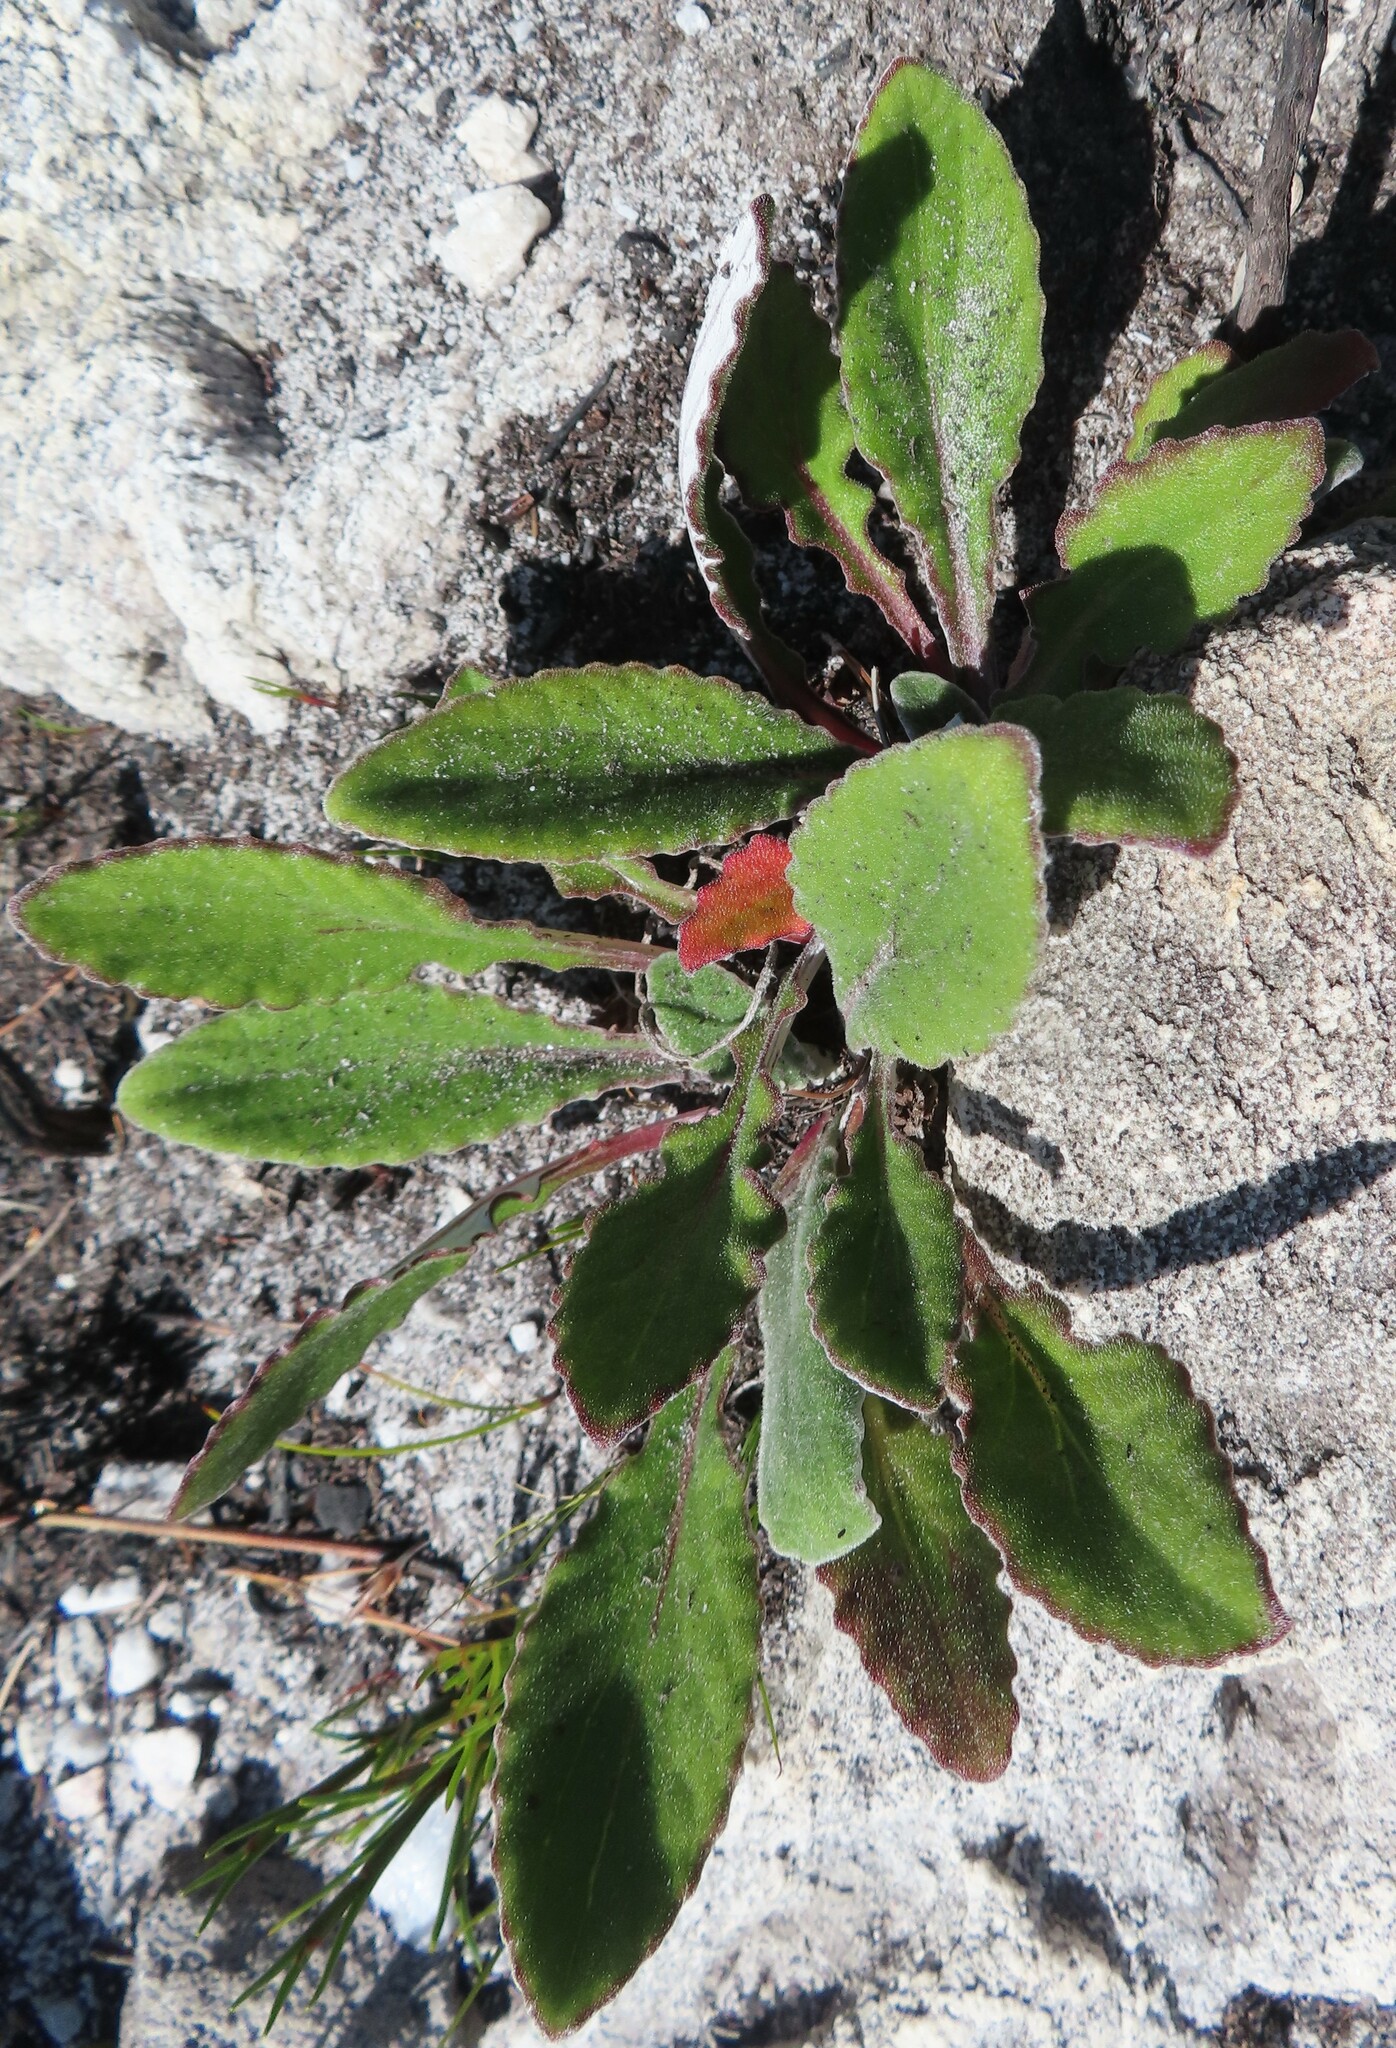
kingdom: Plantae
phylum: Tracheophyta
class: Magnoliopsida
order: Asterales
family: Asteraceae
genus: Haplocarpha
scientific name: Haplocarpha lanata
